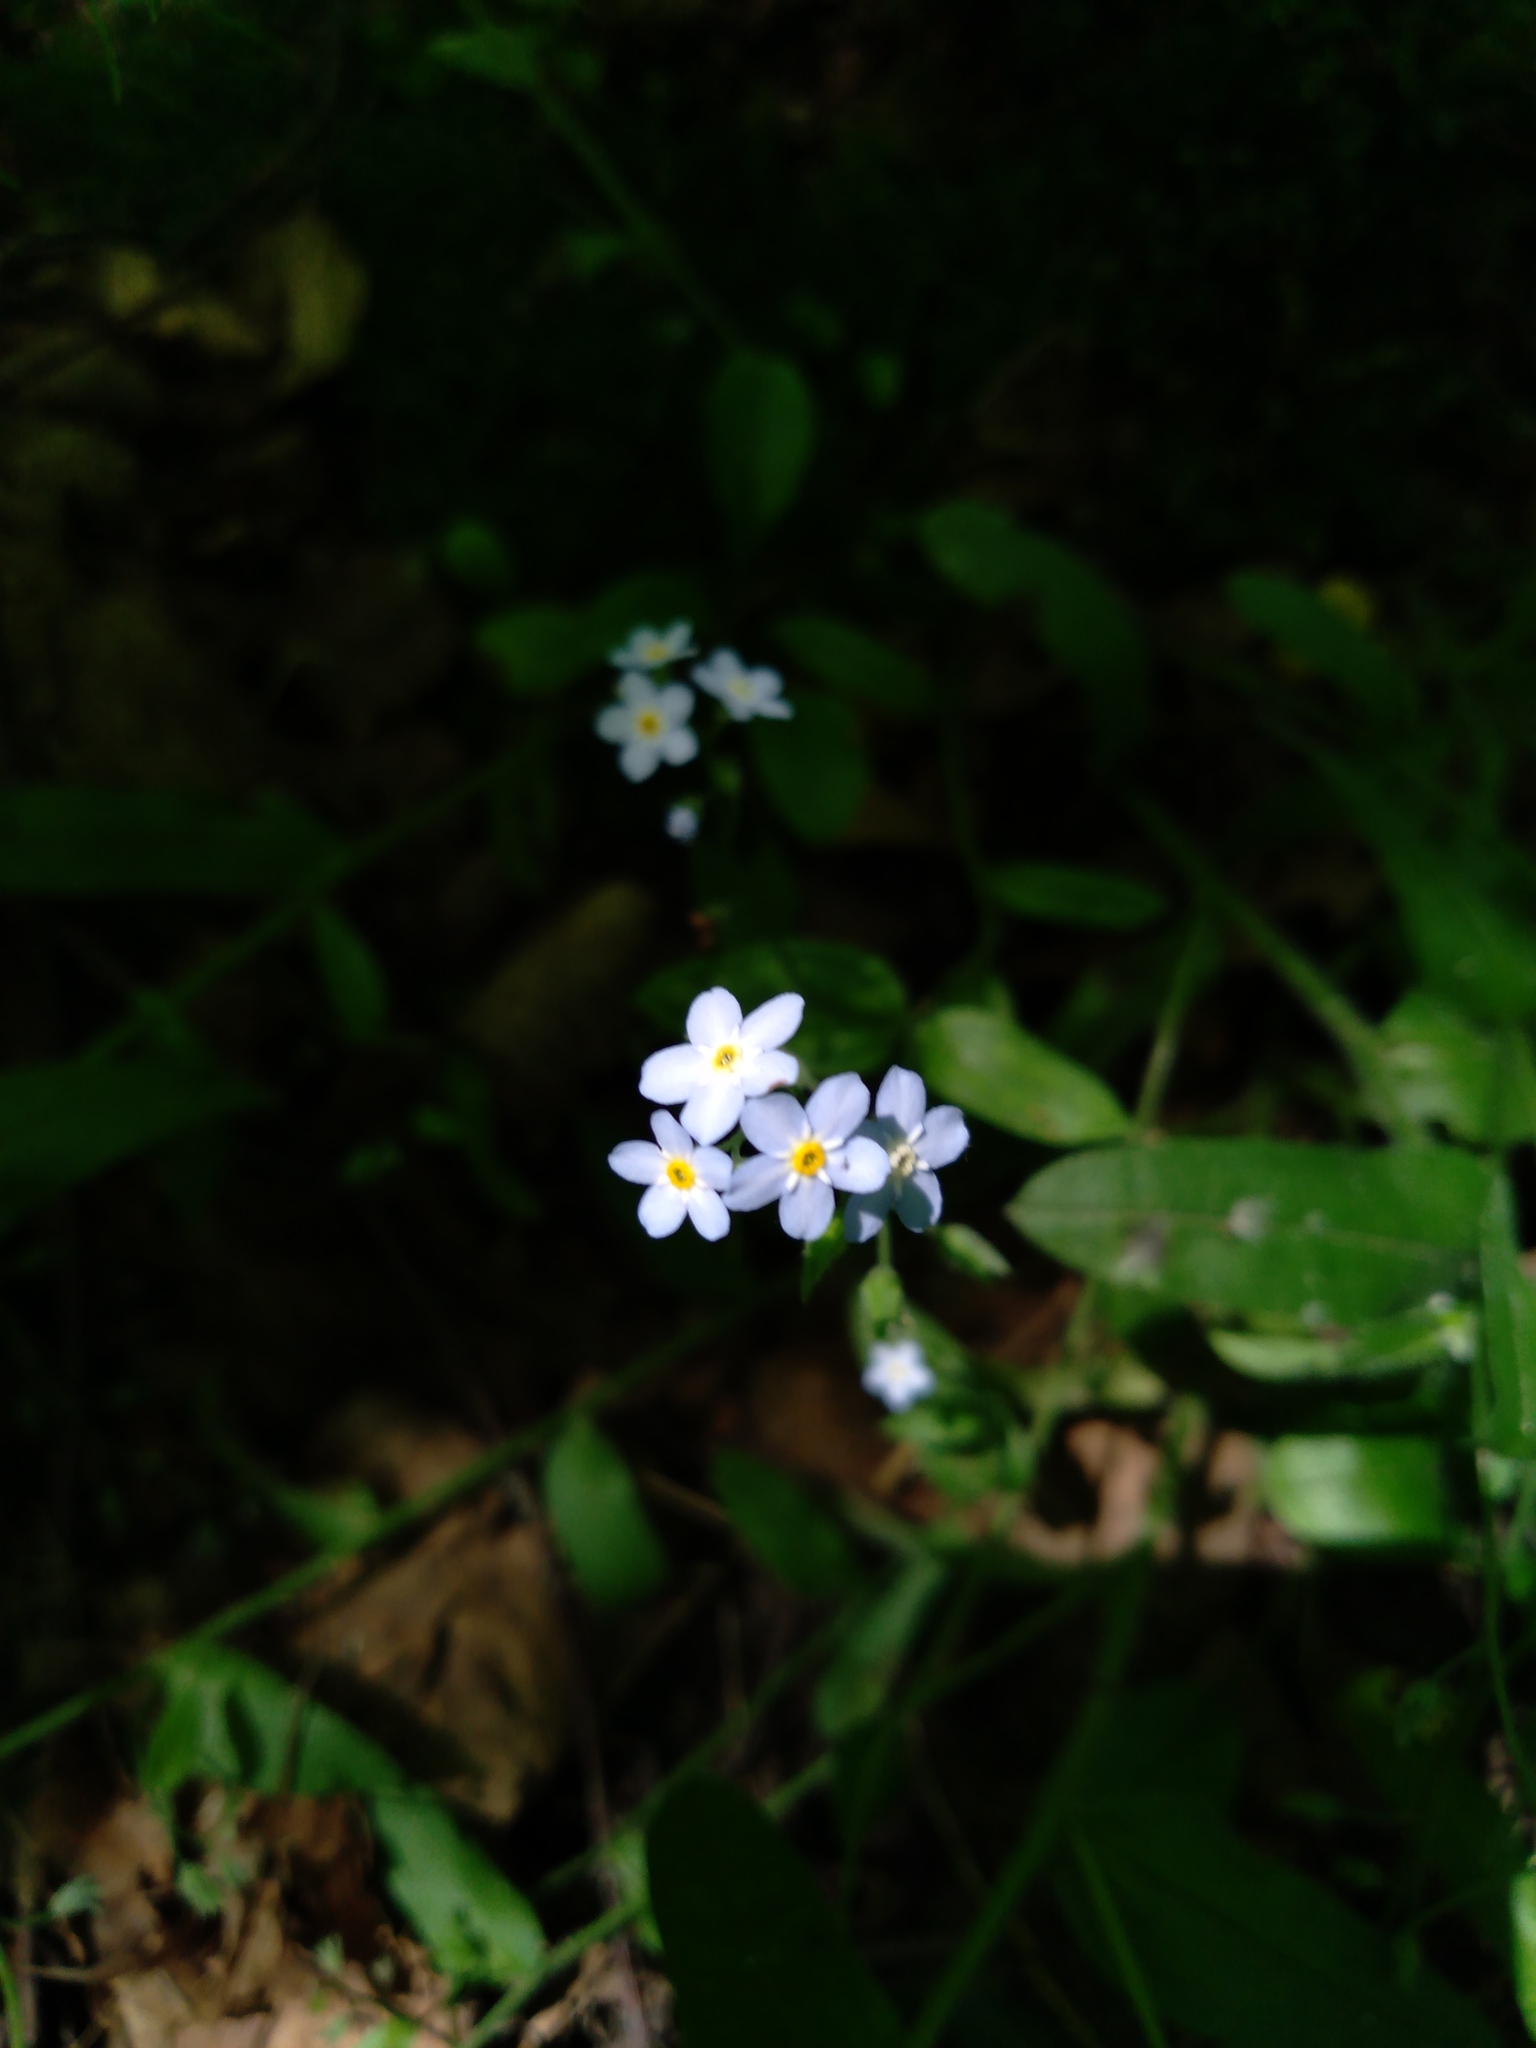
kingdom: Plantae
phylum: Tracheophyta
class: Magnoliopsida
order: Boraginales
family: Boraginaceae
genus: Myosotis
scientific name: Myosotis sylvatica
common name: Wood forget-me-not
